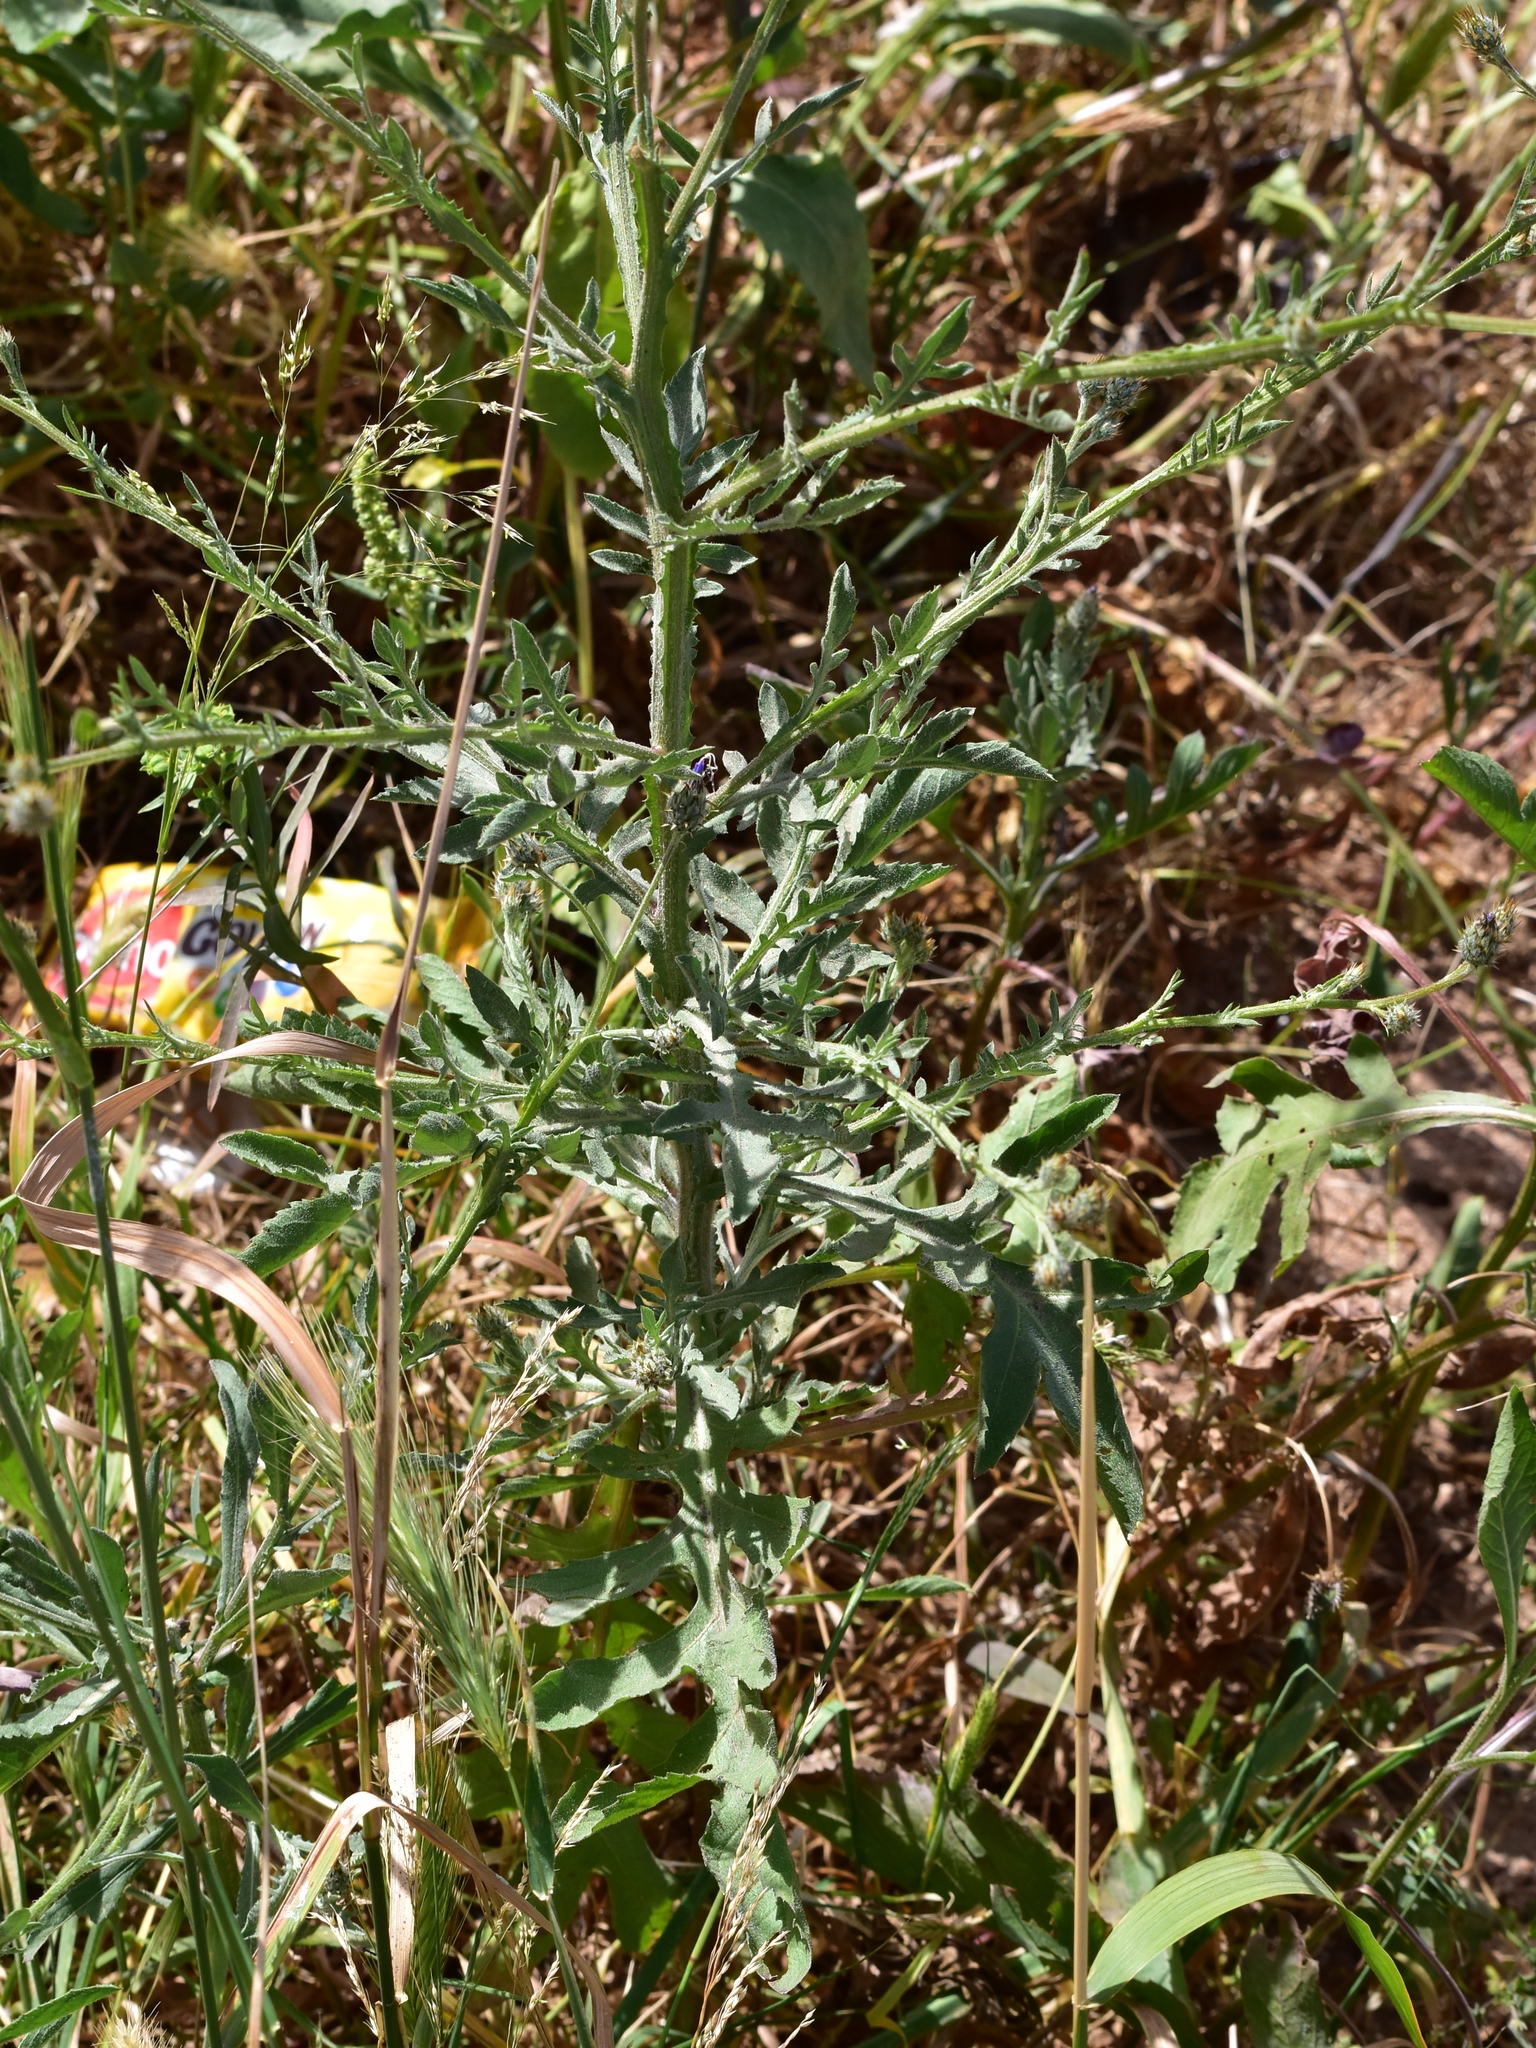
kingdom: Plantae
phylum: Tracheophyta
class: Magnoliopsida
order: Asterales
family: Asteraceae
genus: Volutaria
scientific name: Volutaria lippii
